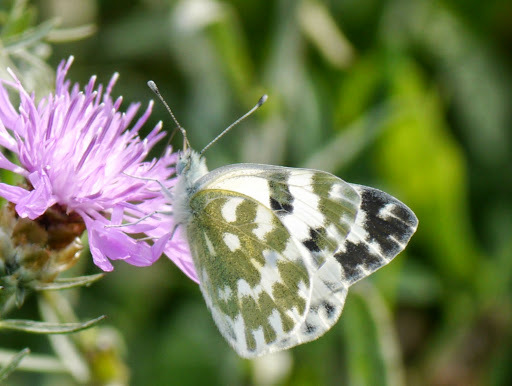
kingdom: Animalia
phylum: Arthropoda
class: Insecta
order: Lepidoptera
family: Pieridae
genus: Pontia
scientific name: Pontia edusa
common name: Eastern bath white
